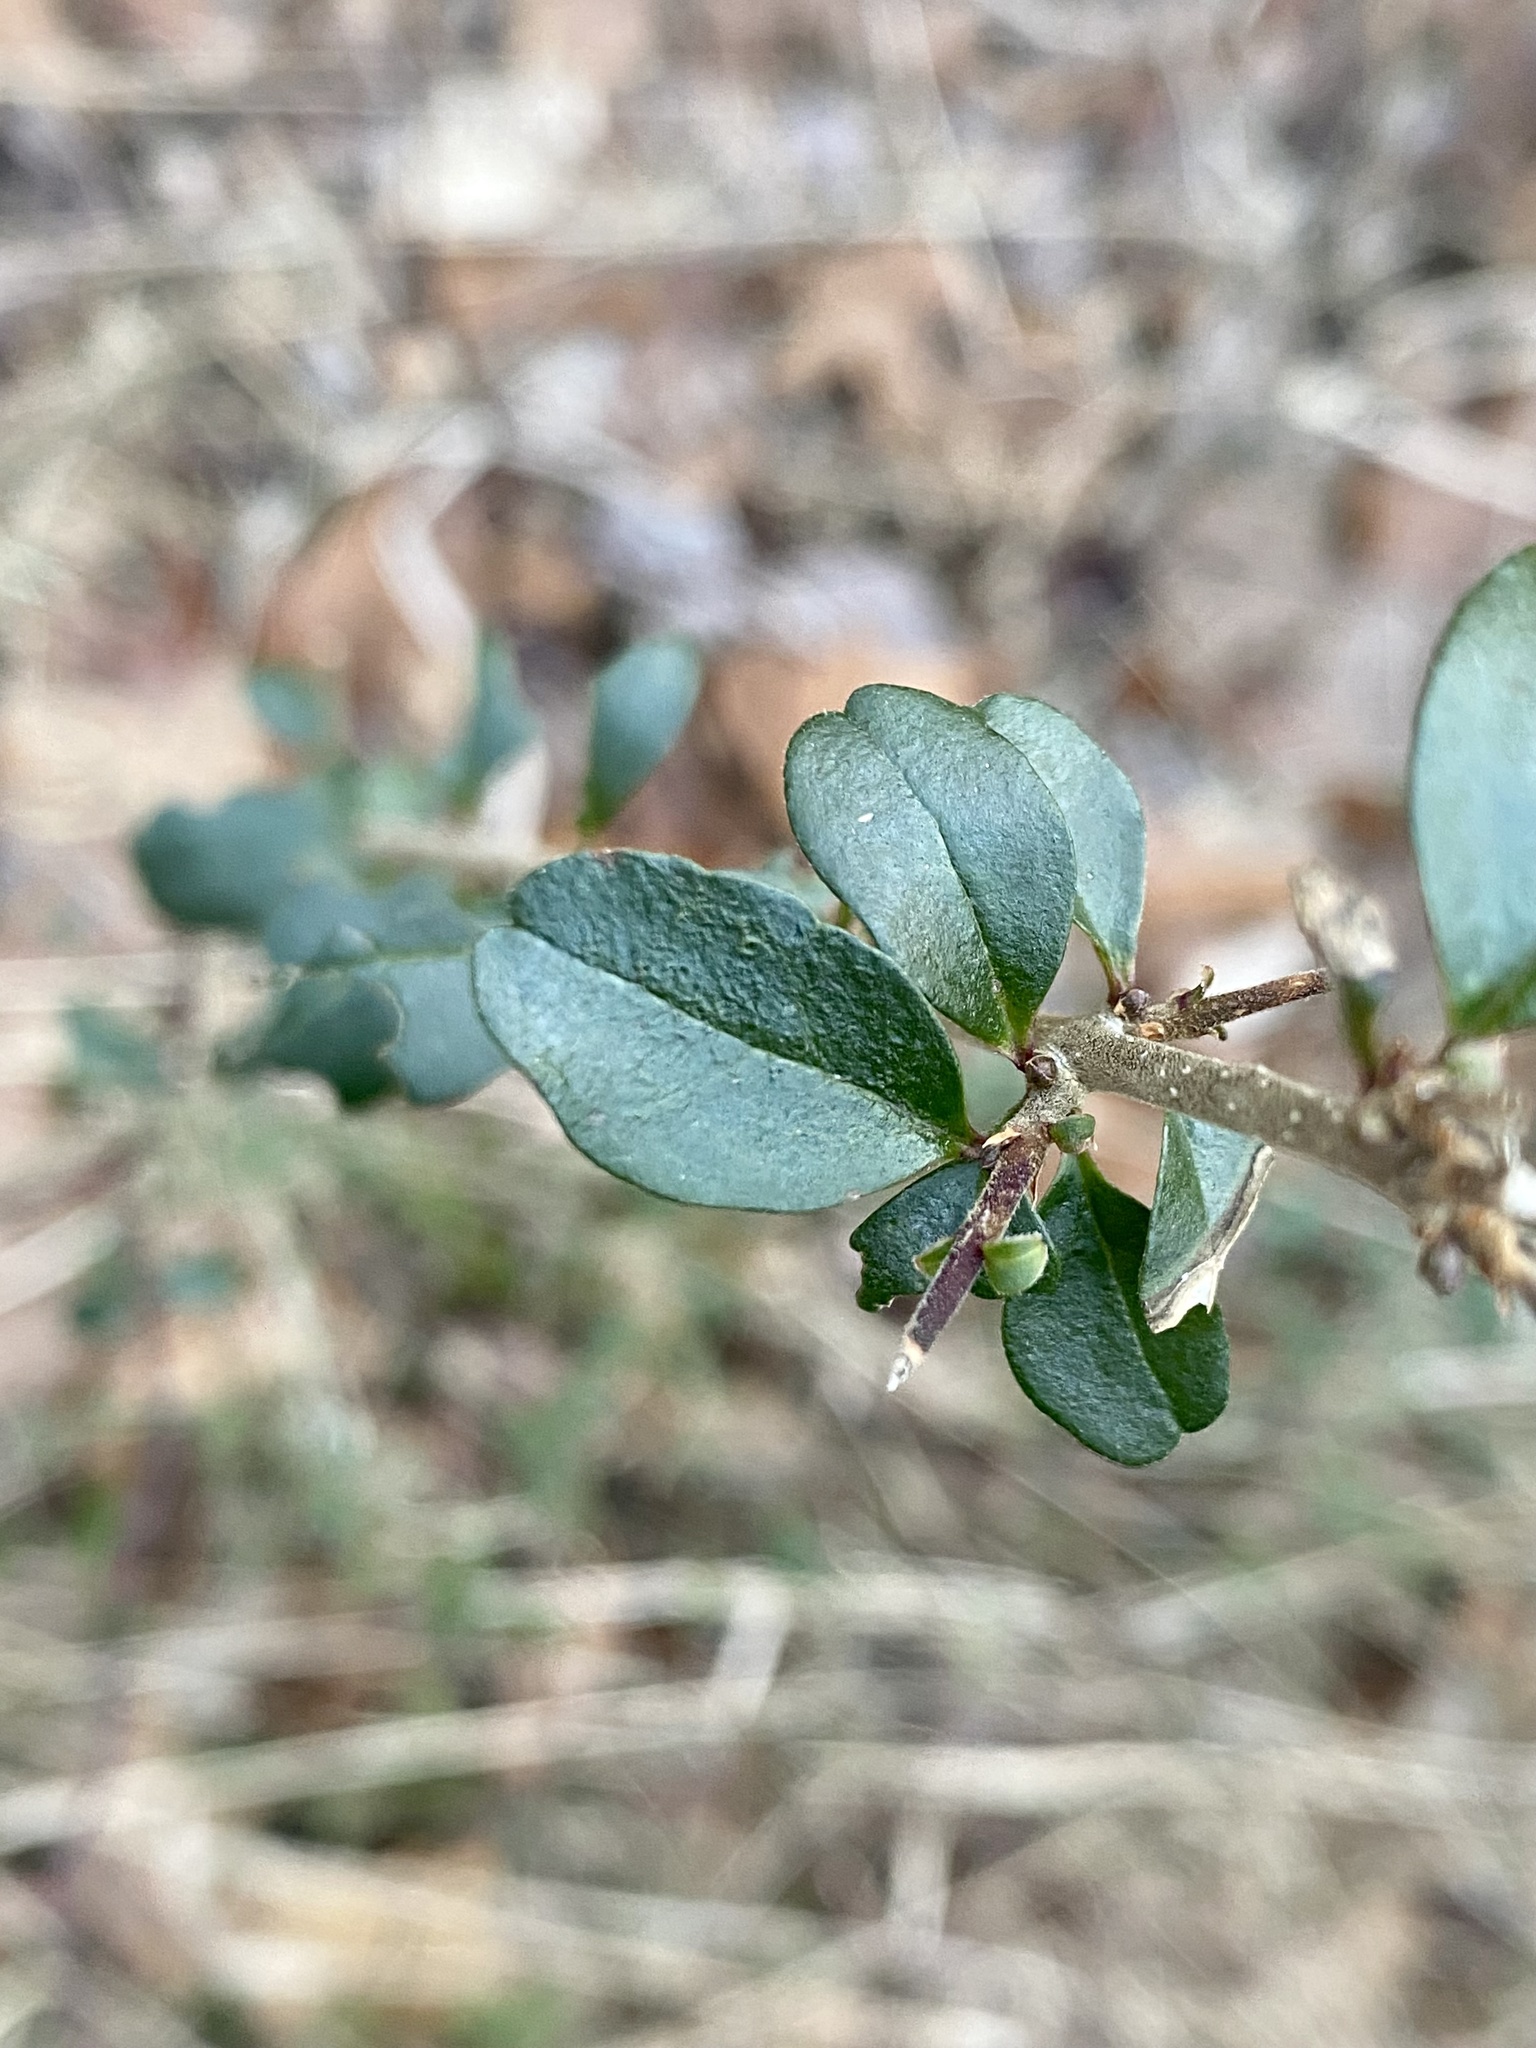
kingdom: Plantae
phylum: Tracheophyta
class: Magnoliopsida
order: Lamiales
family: Oleaceae
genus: Ligustrum
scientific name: Ligustrum sinense
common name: Chinese privet
